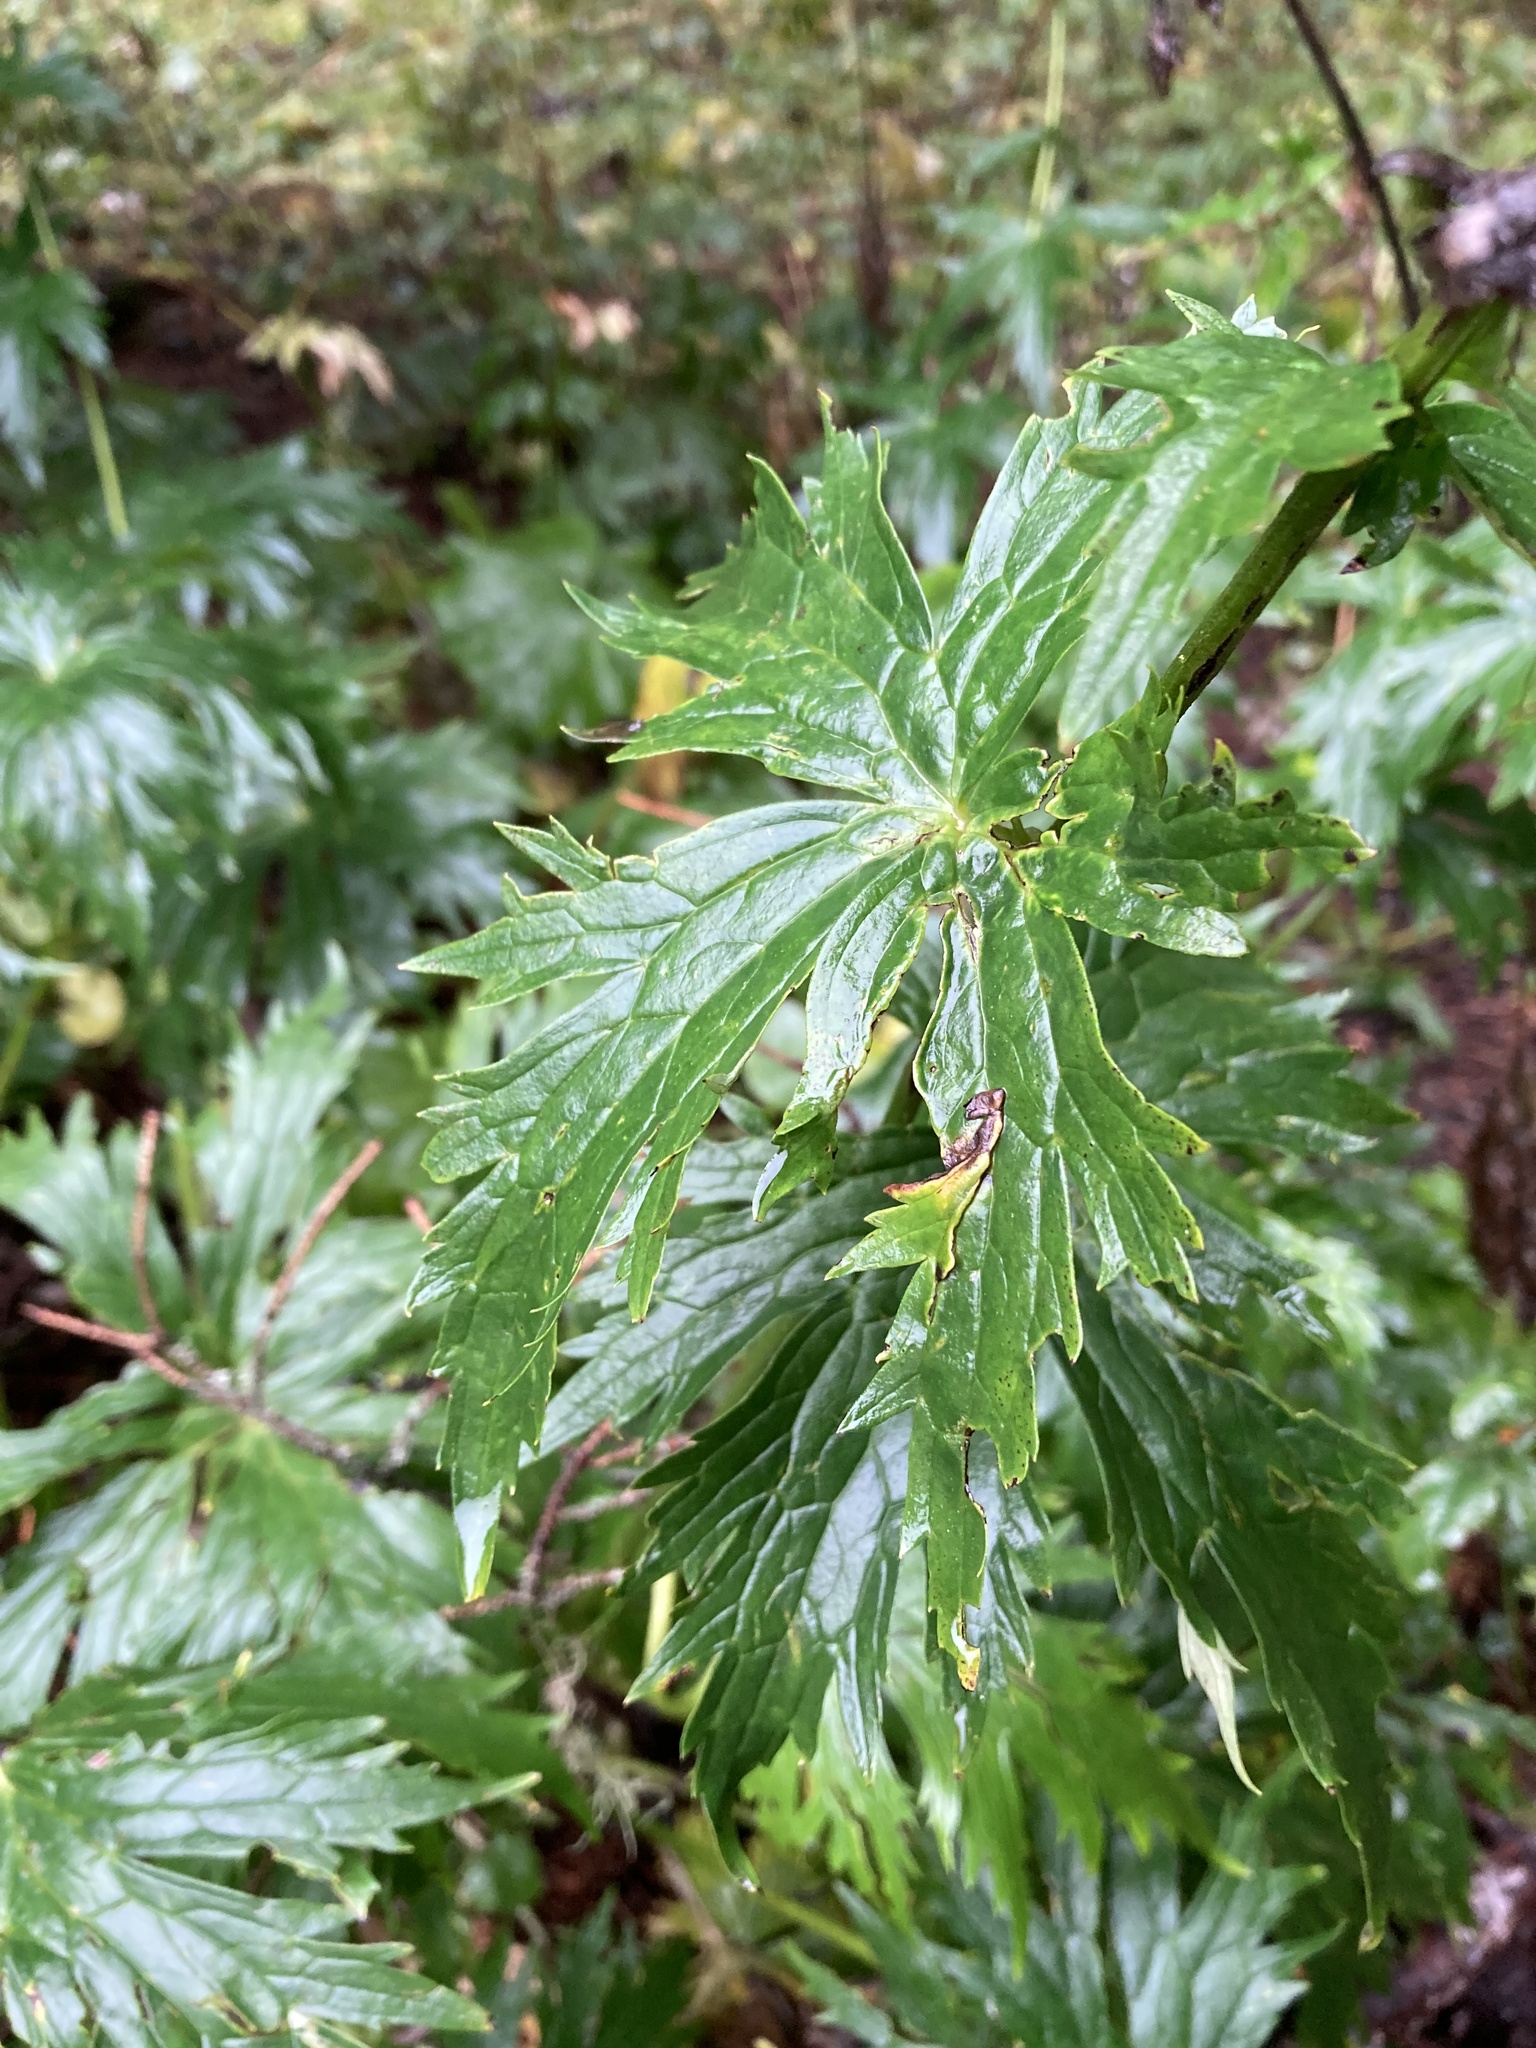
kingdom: Plantae
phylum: Tracheophyta
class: Magnoliopsida
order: Ranunculales
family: Ranunculaceae
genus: Aconitum
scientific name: Aconitum lycoctonum
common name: Wolf's-bane
